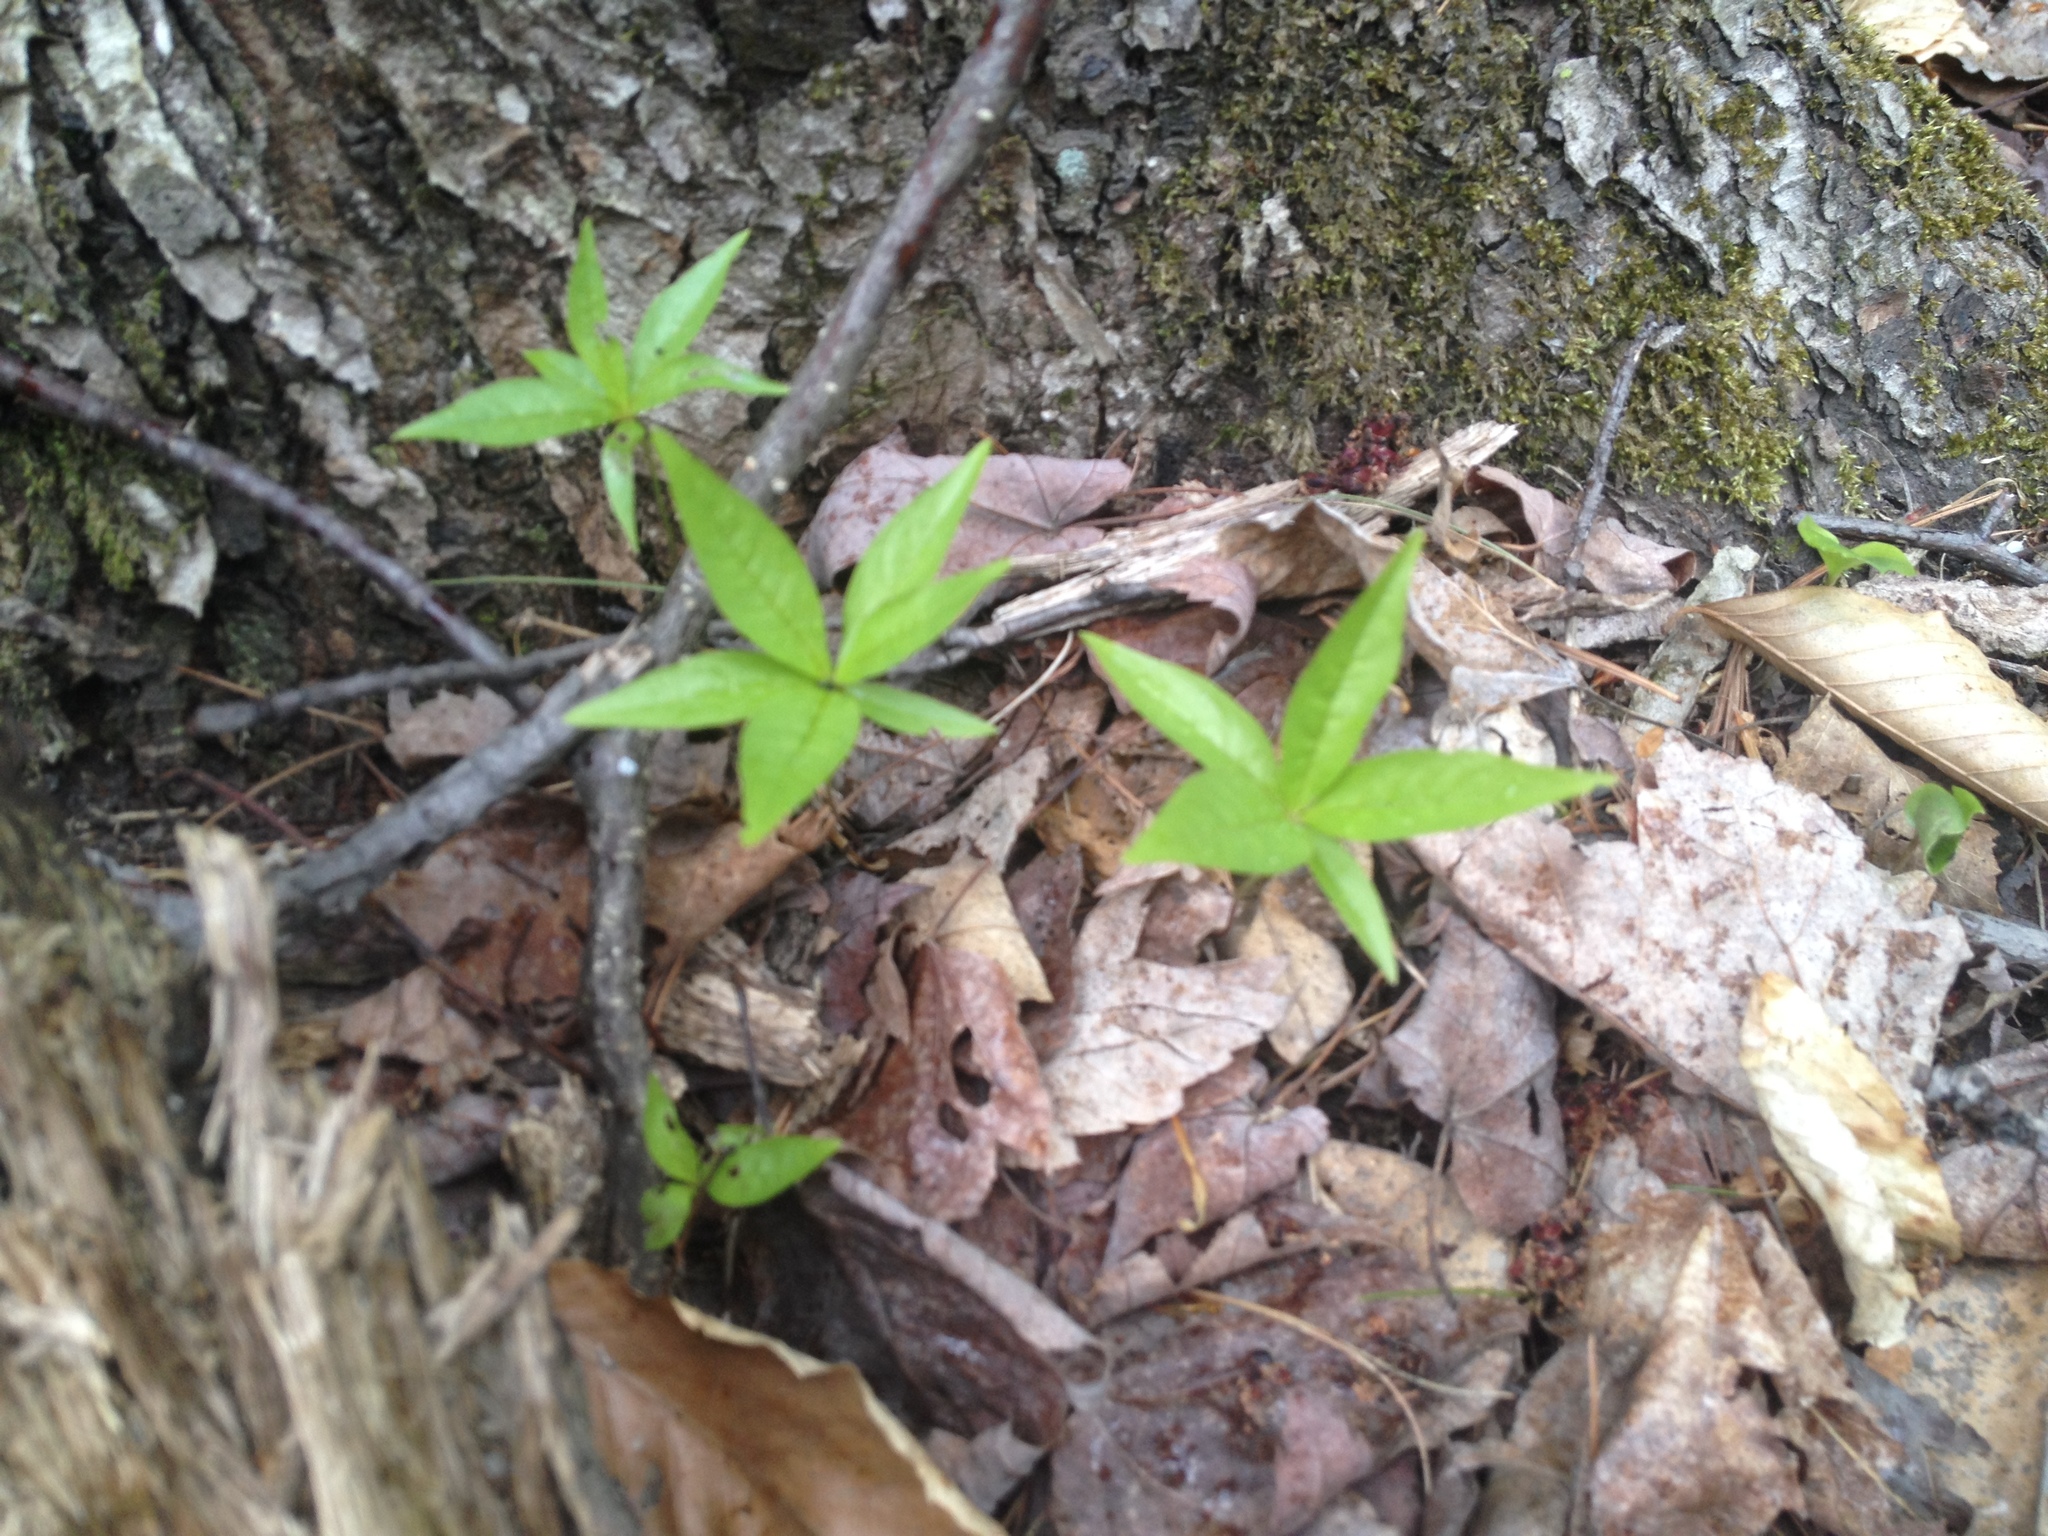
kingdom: Plantae
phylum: Tracheophyta
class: Magnoliopsida
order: Ericales
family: Primulaceae
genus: Lysimachia
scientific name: Lysimachia borealis
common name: American starflower
